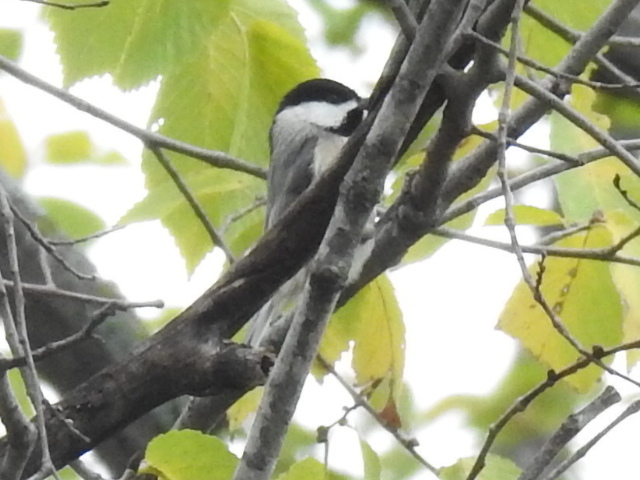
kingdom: Animalia
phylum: Chordata
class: Aves
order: Passeriformes
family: Paridae
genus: Poecile
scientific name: Poecile carolinensis
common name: Carolina chickadee
